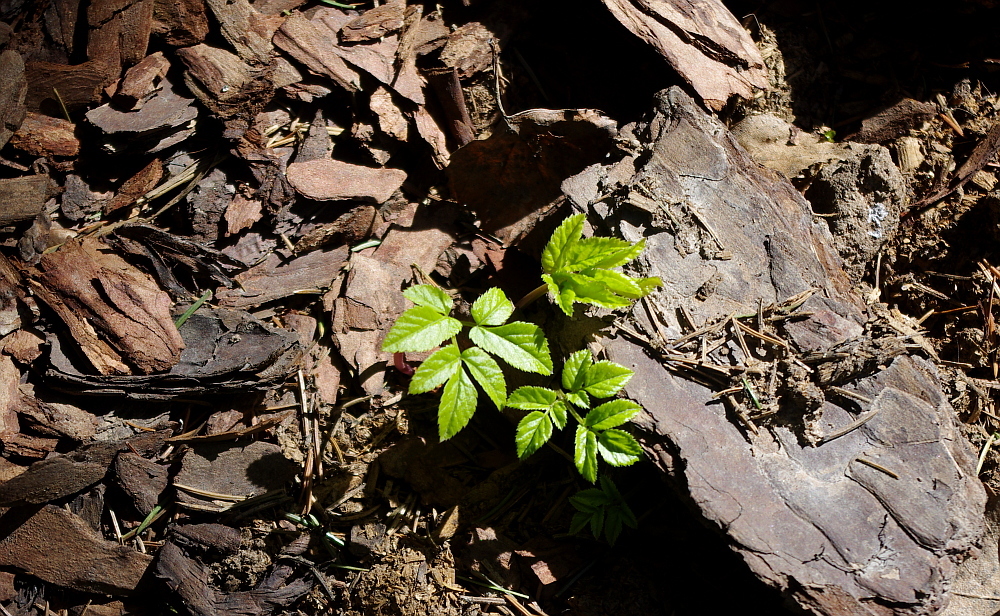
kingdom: Plantae
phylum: Tracheophyta
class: Magnoliopsida
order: Apiales
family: Apiaceae
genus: Aegopodium
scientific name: Aegopodium podagraria
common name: Ground-elder
